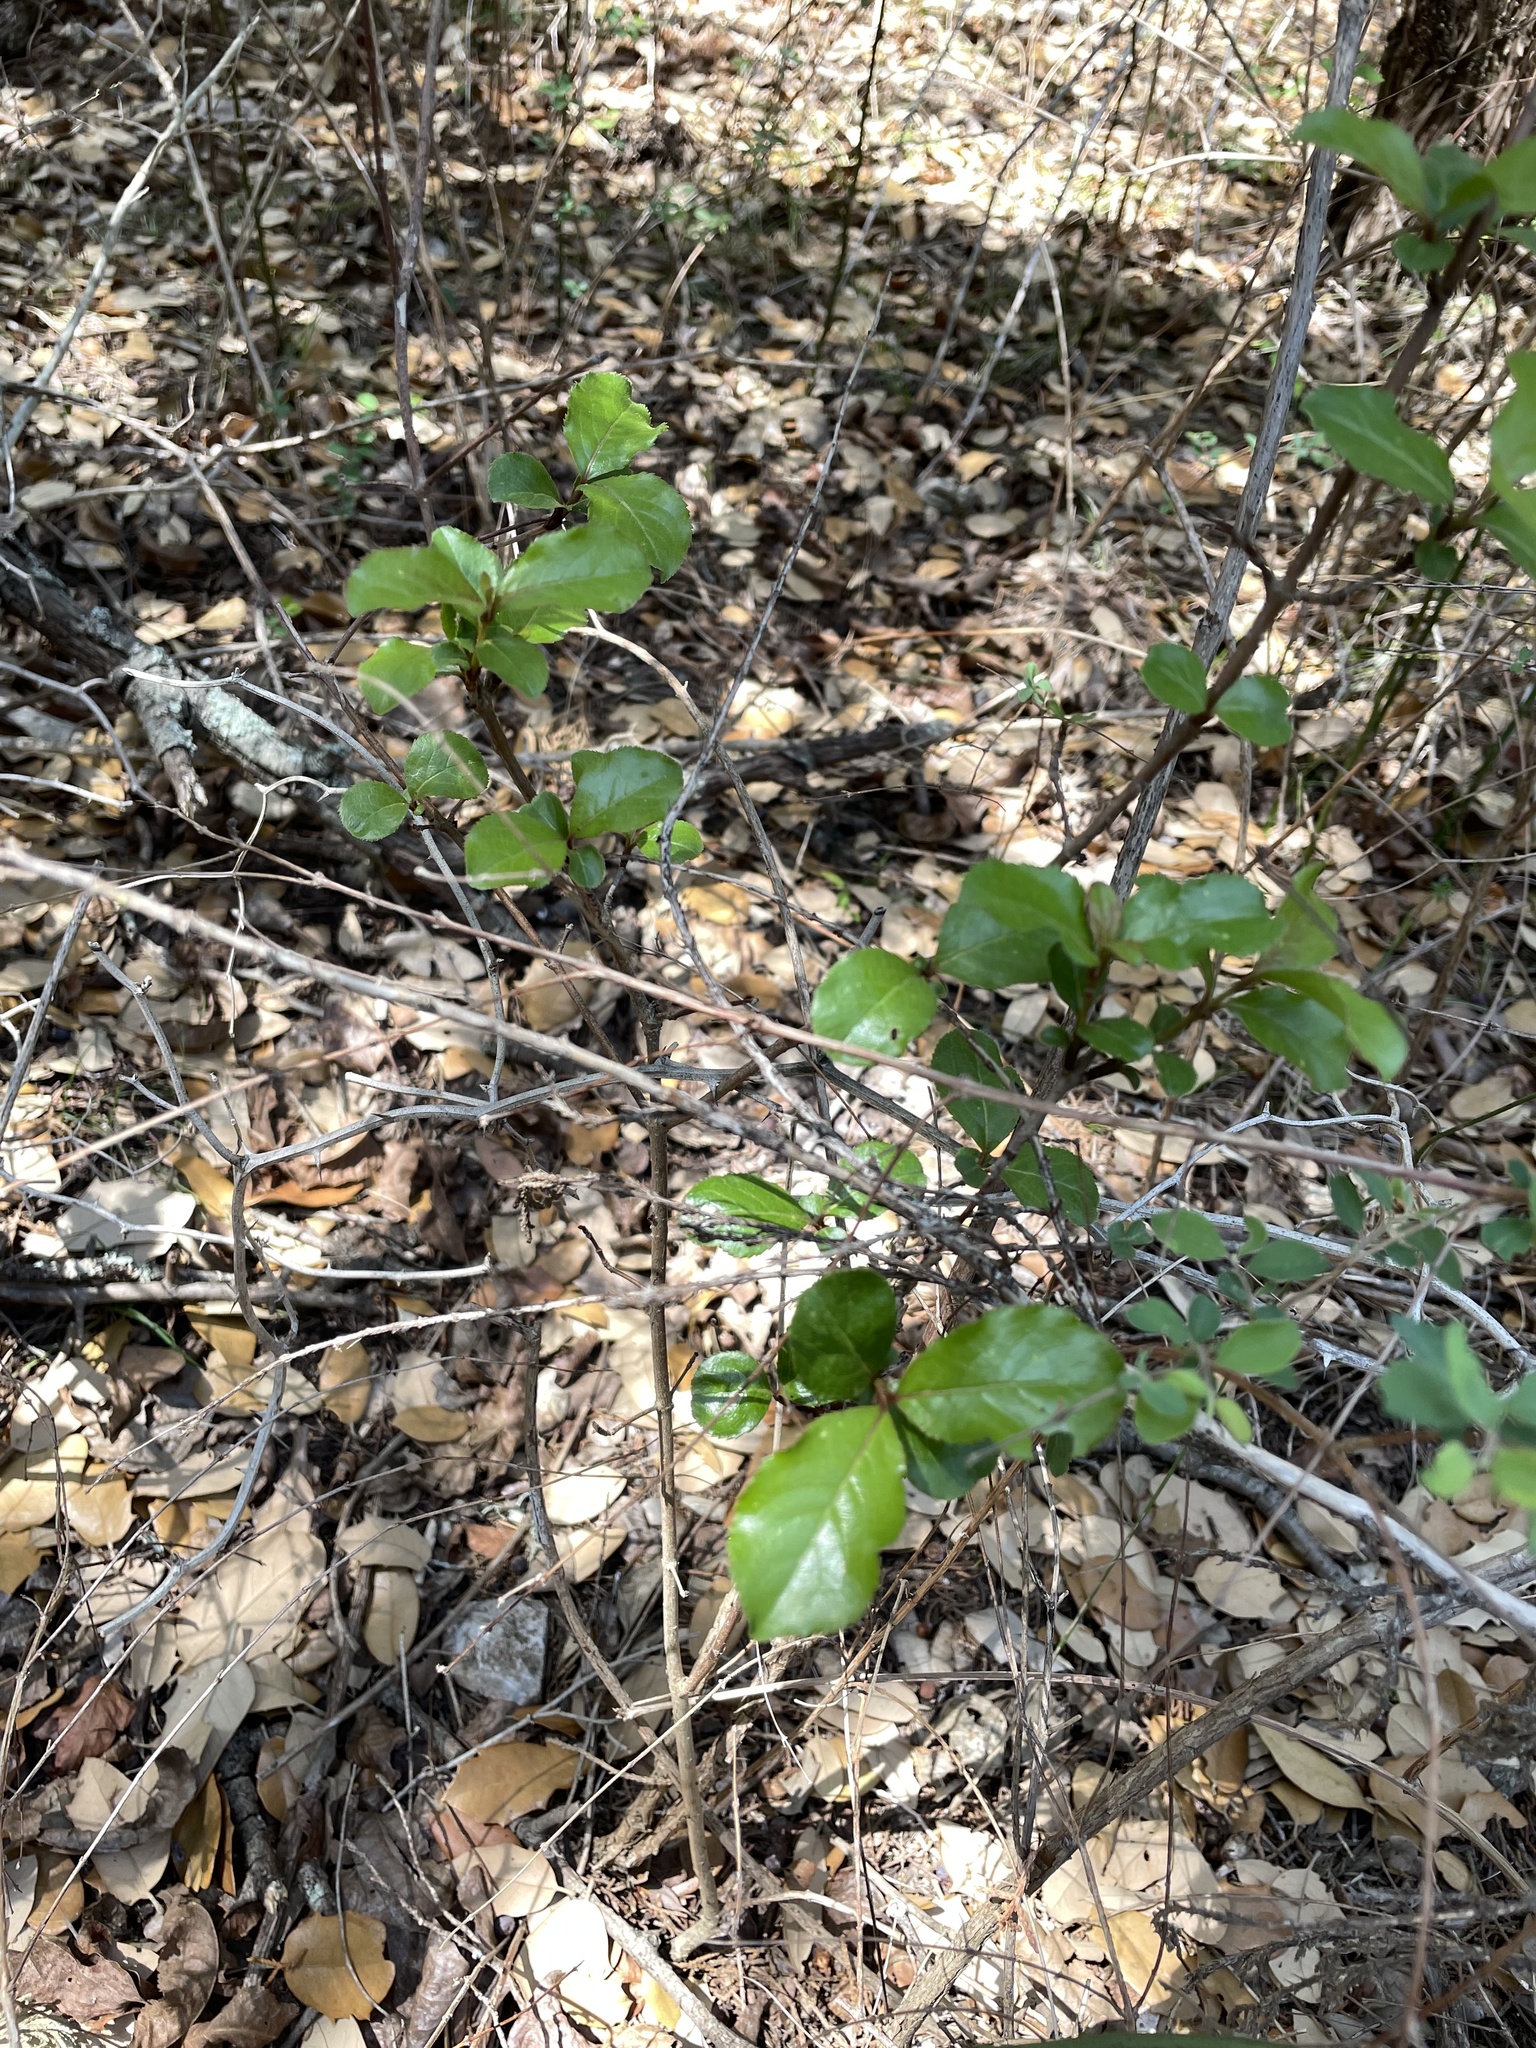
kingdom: Plantae
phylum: Tracheophyta
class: Magnoliopsida
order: Dipsacales
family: Viburnaceae
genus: Viburnum
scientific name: Viburnum rufidulum
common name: Blue haw
